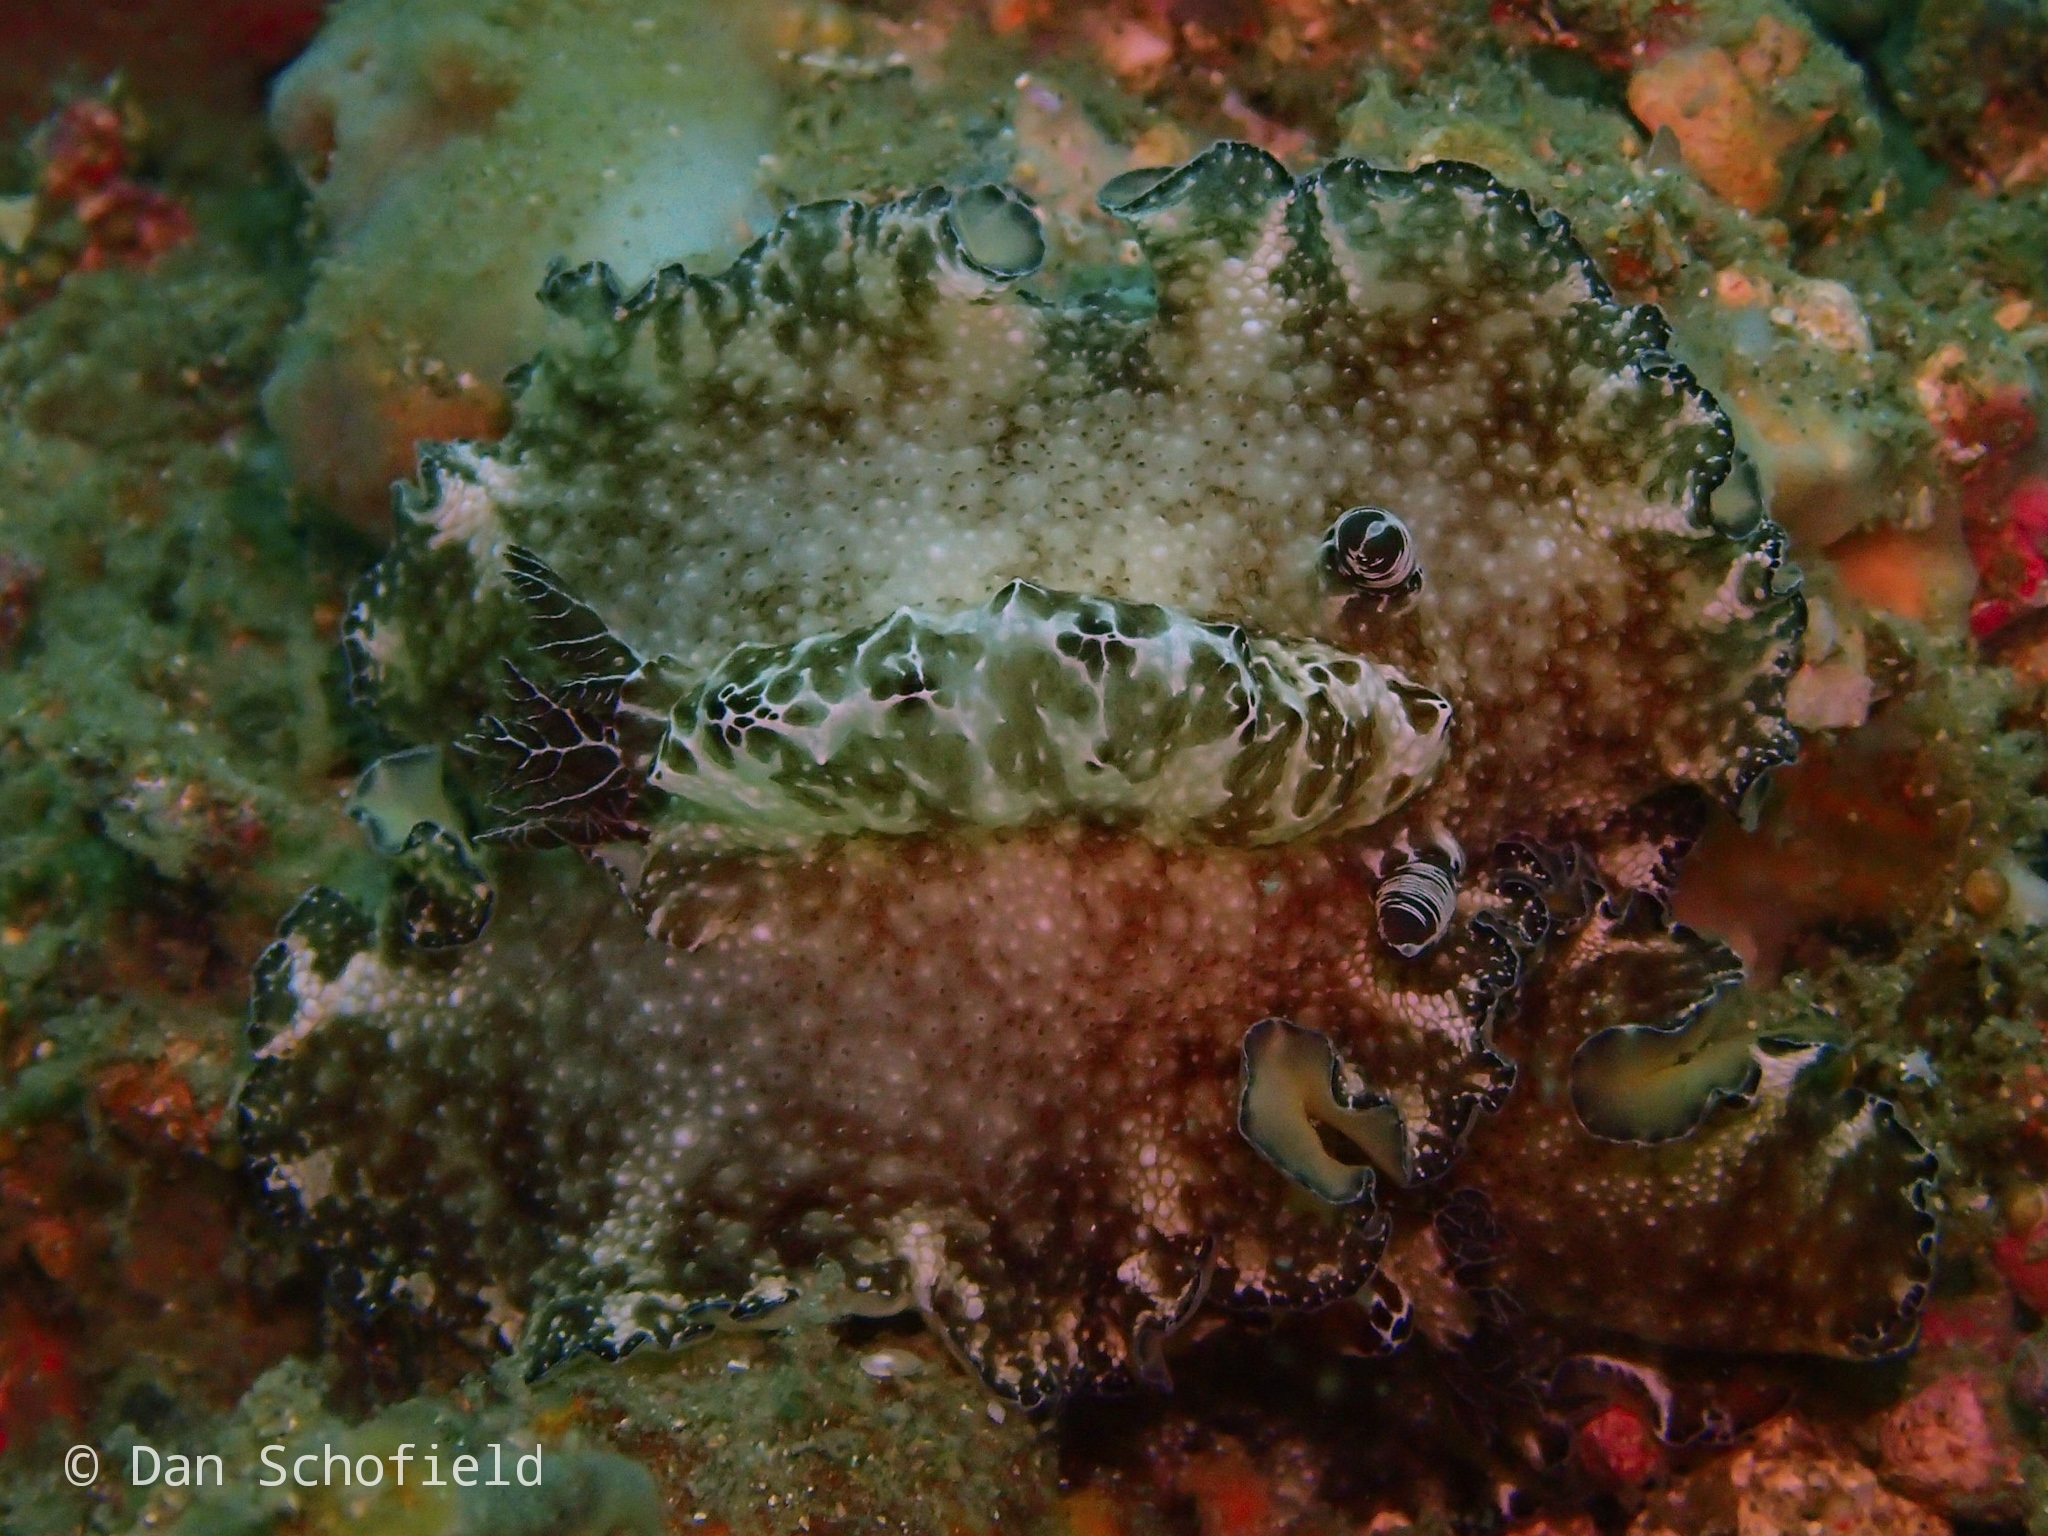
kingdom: Animalia
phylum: Mollusca
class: Gastropoda
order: Nudibranchia
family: Discodorididae
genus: Discodoris
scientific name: Discodoris boholiensis
